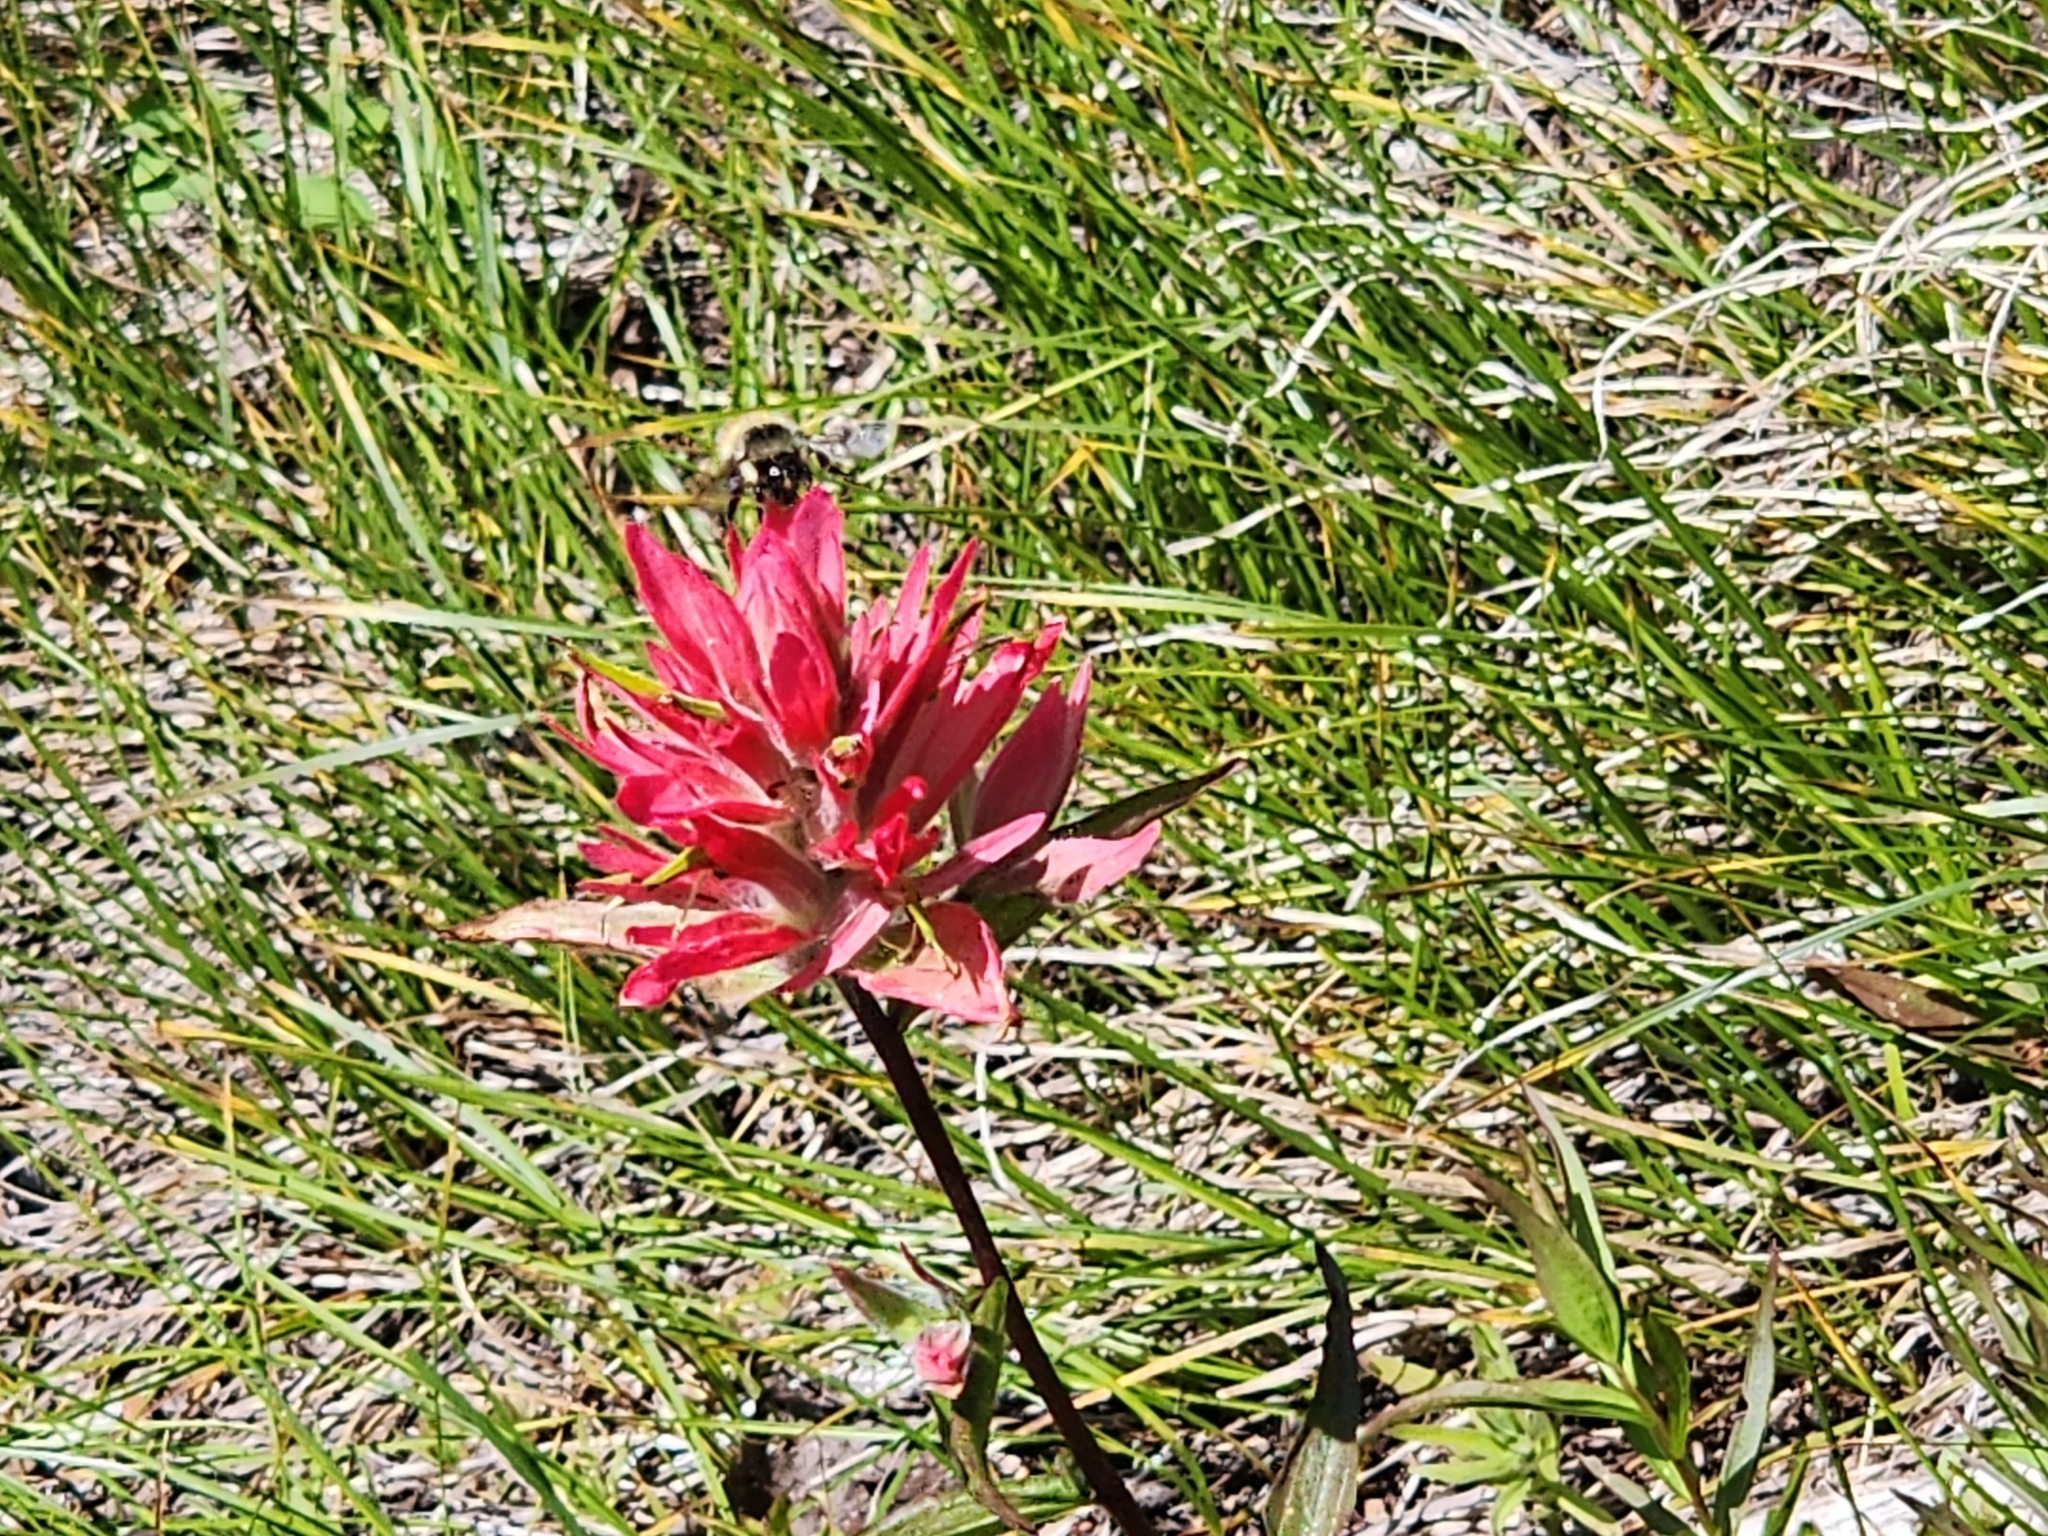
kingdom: Animalia
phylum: Arthropoda
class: Insecta
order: Hymenoptera
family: Apidae
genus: Bombus
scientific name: Bombus flavifrons
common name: Yellow head bumble bee
